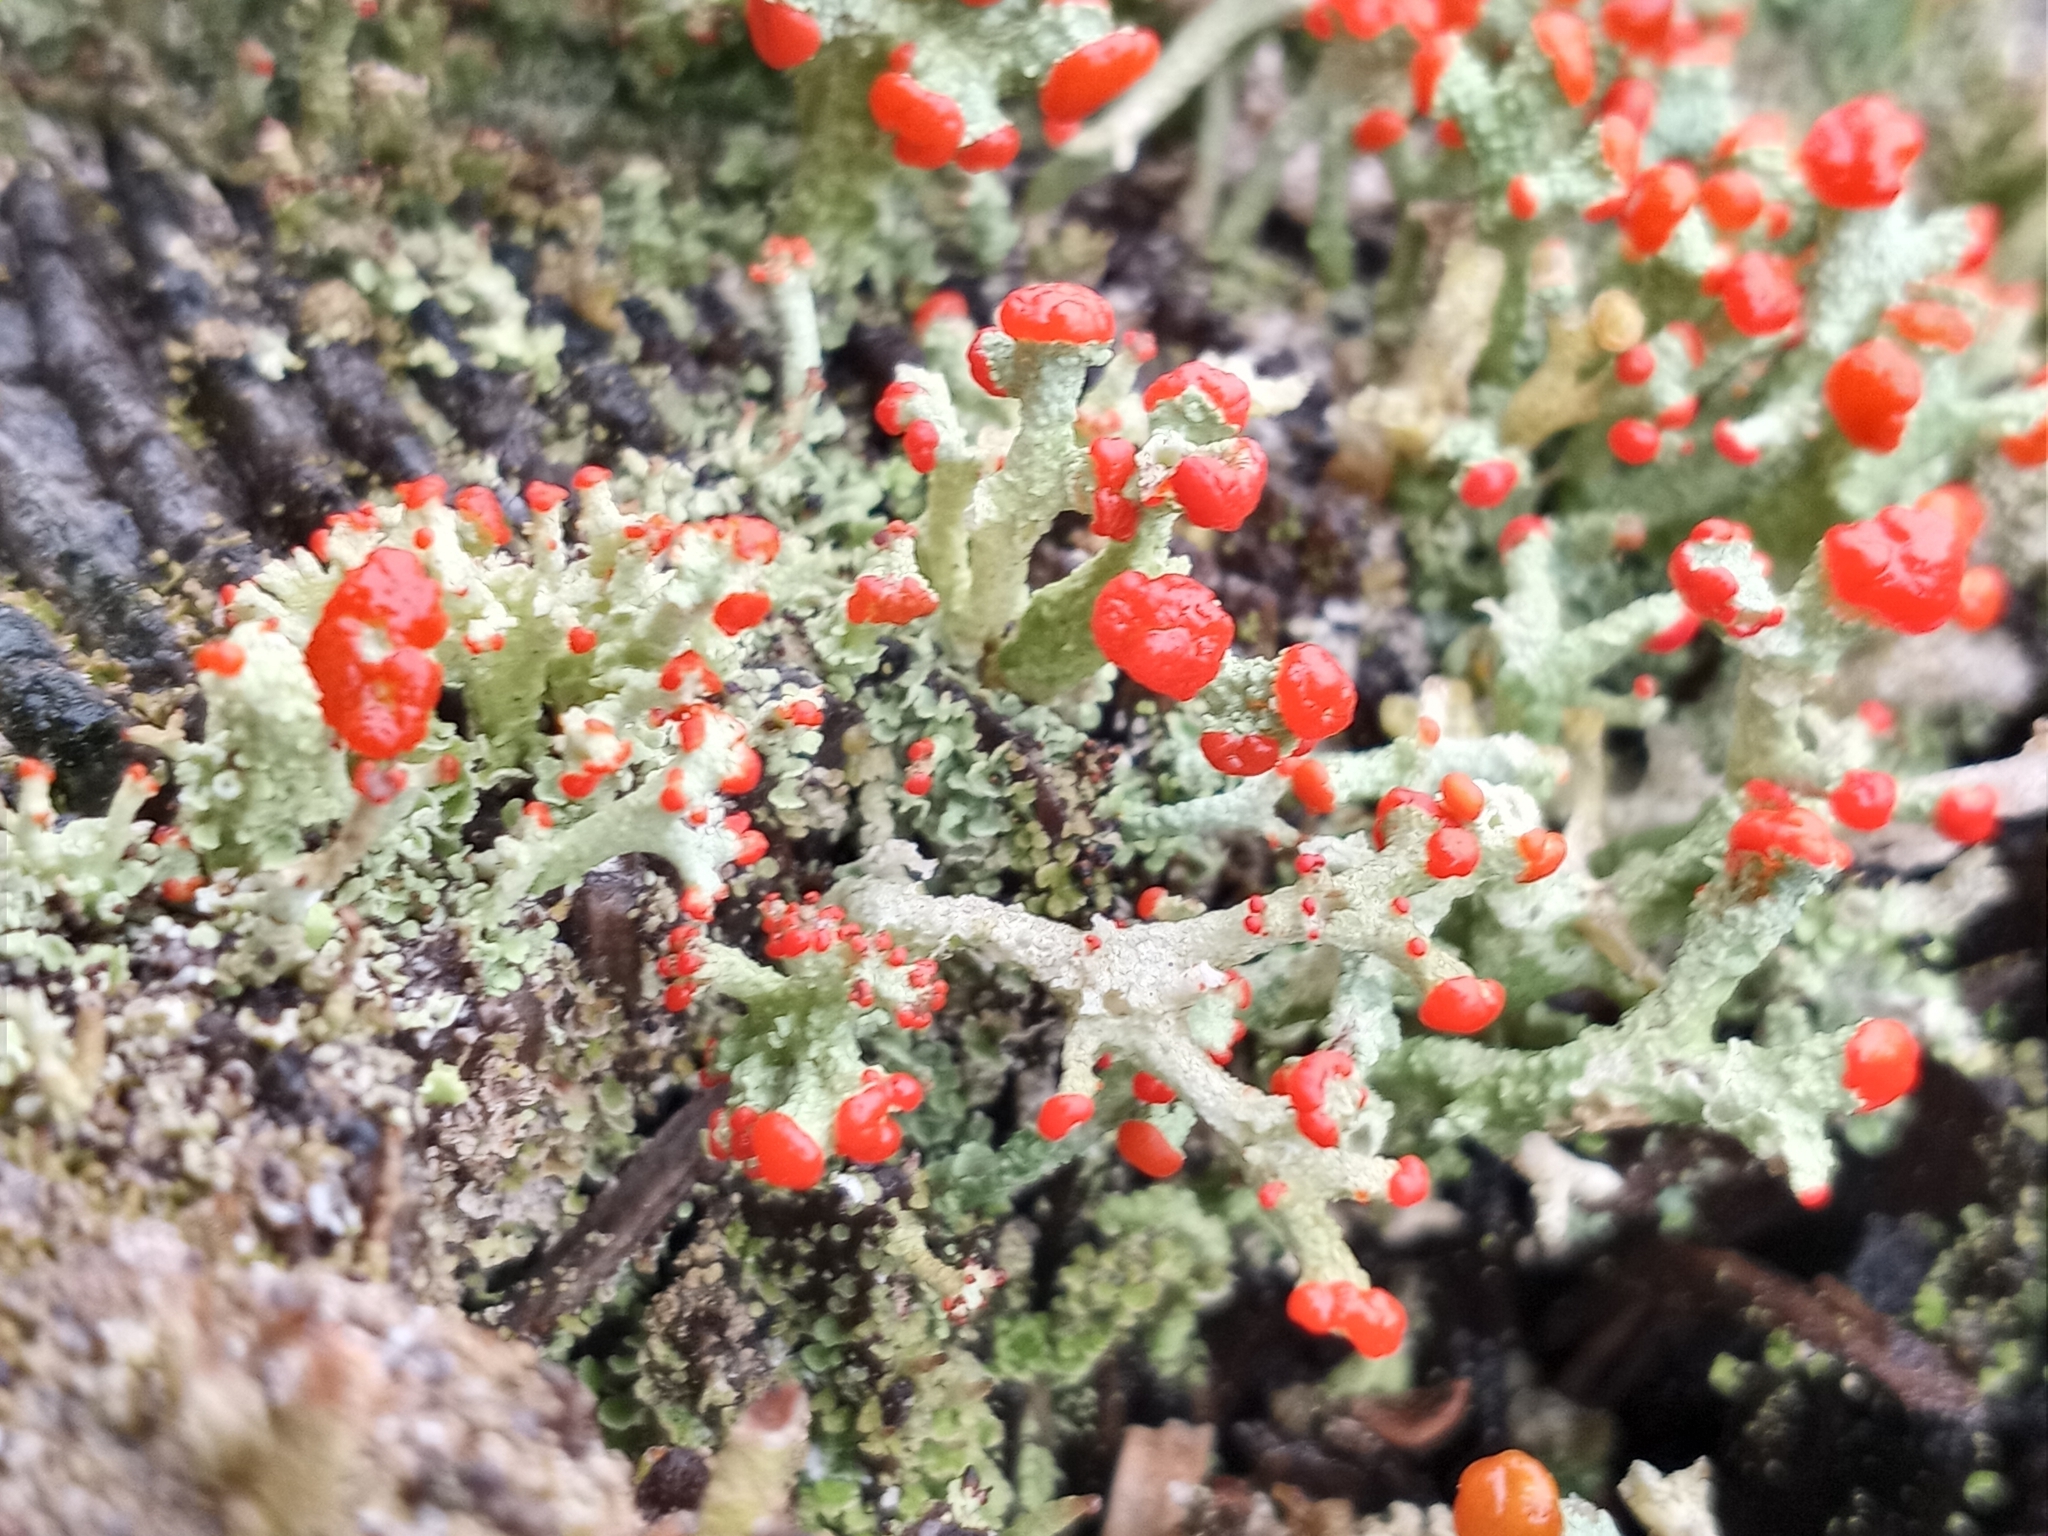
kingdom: Fungi
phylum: Ascomycota
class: Lecanoromycetes
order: Lecanorales
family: Cladoniaceae
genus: Cladonia
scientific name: Cladonia cristatella
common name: British soldier lichen
